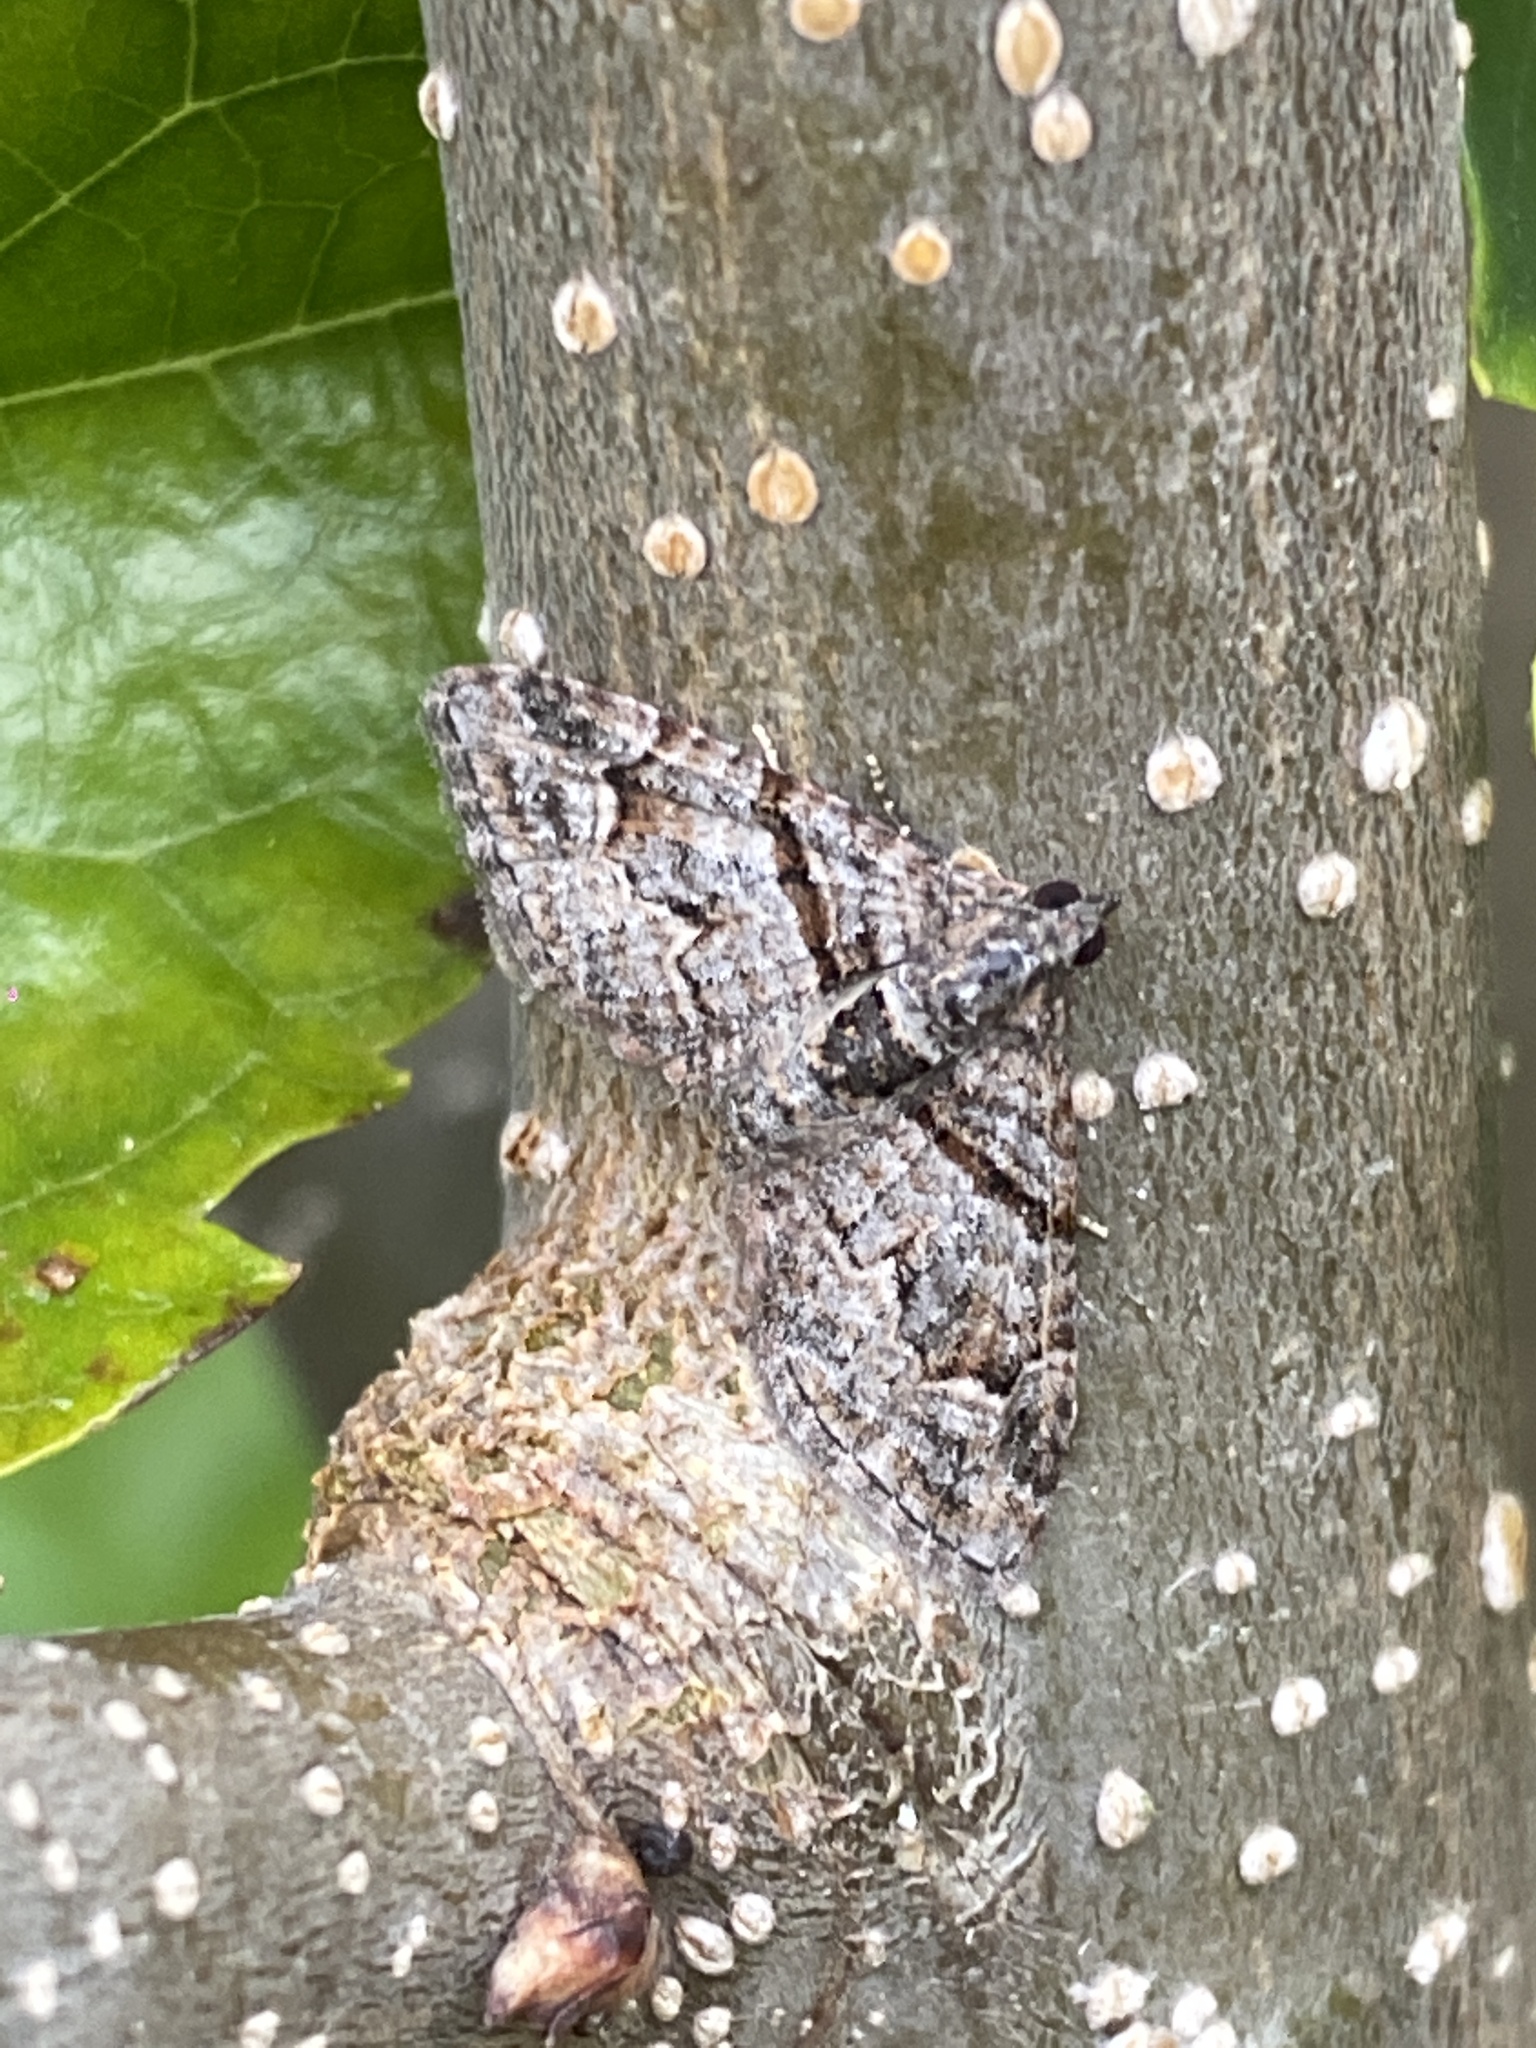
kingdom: Animalia
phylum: Arthropoda
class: Insecta
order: Lepidoptera
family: Geometridae
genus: Phrissogonus
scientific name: Phrissogonus laticostata
